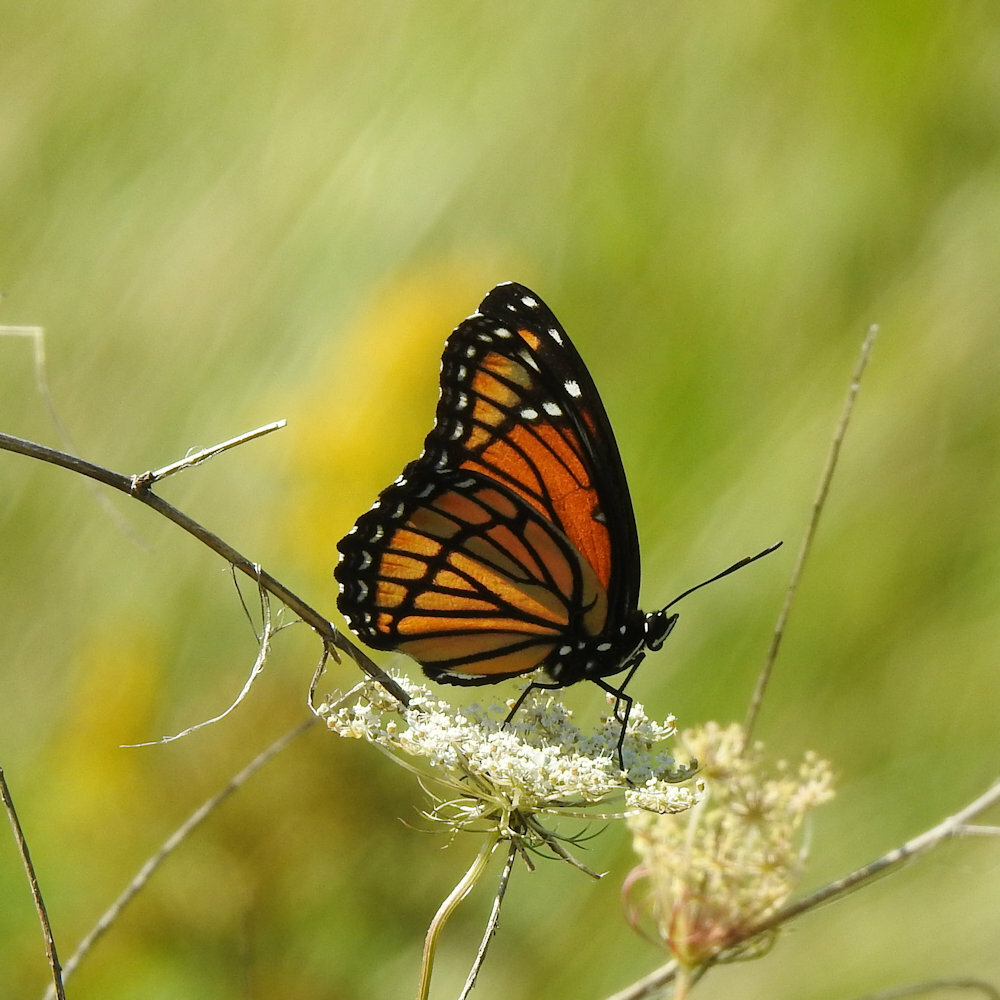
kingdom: Animalia
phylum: Arthropoda
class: Insecta
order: Lepidoptera
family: Nymphalidae
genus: Limenitis
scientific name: Limenitis archippus
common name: Viceroy
